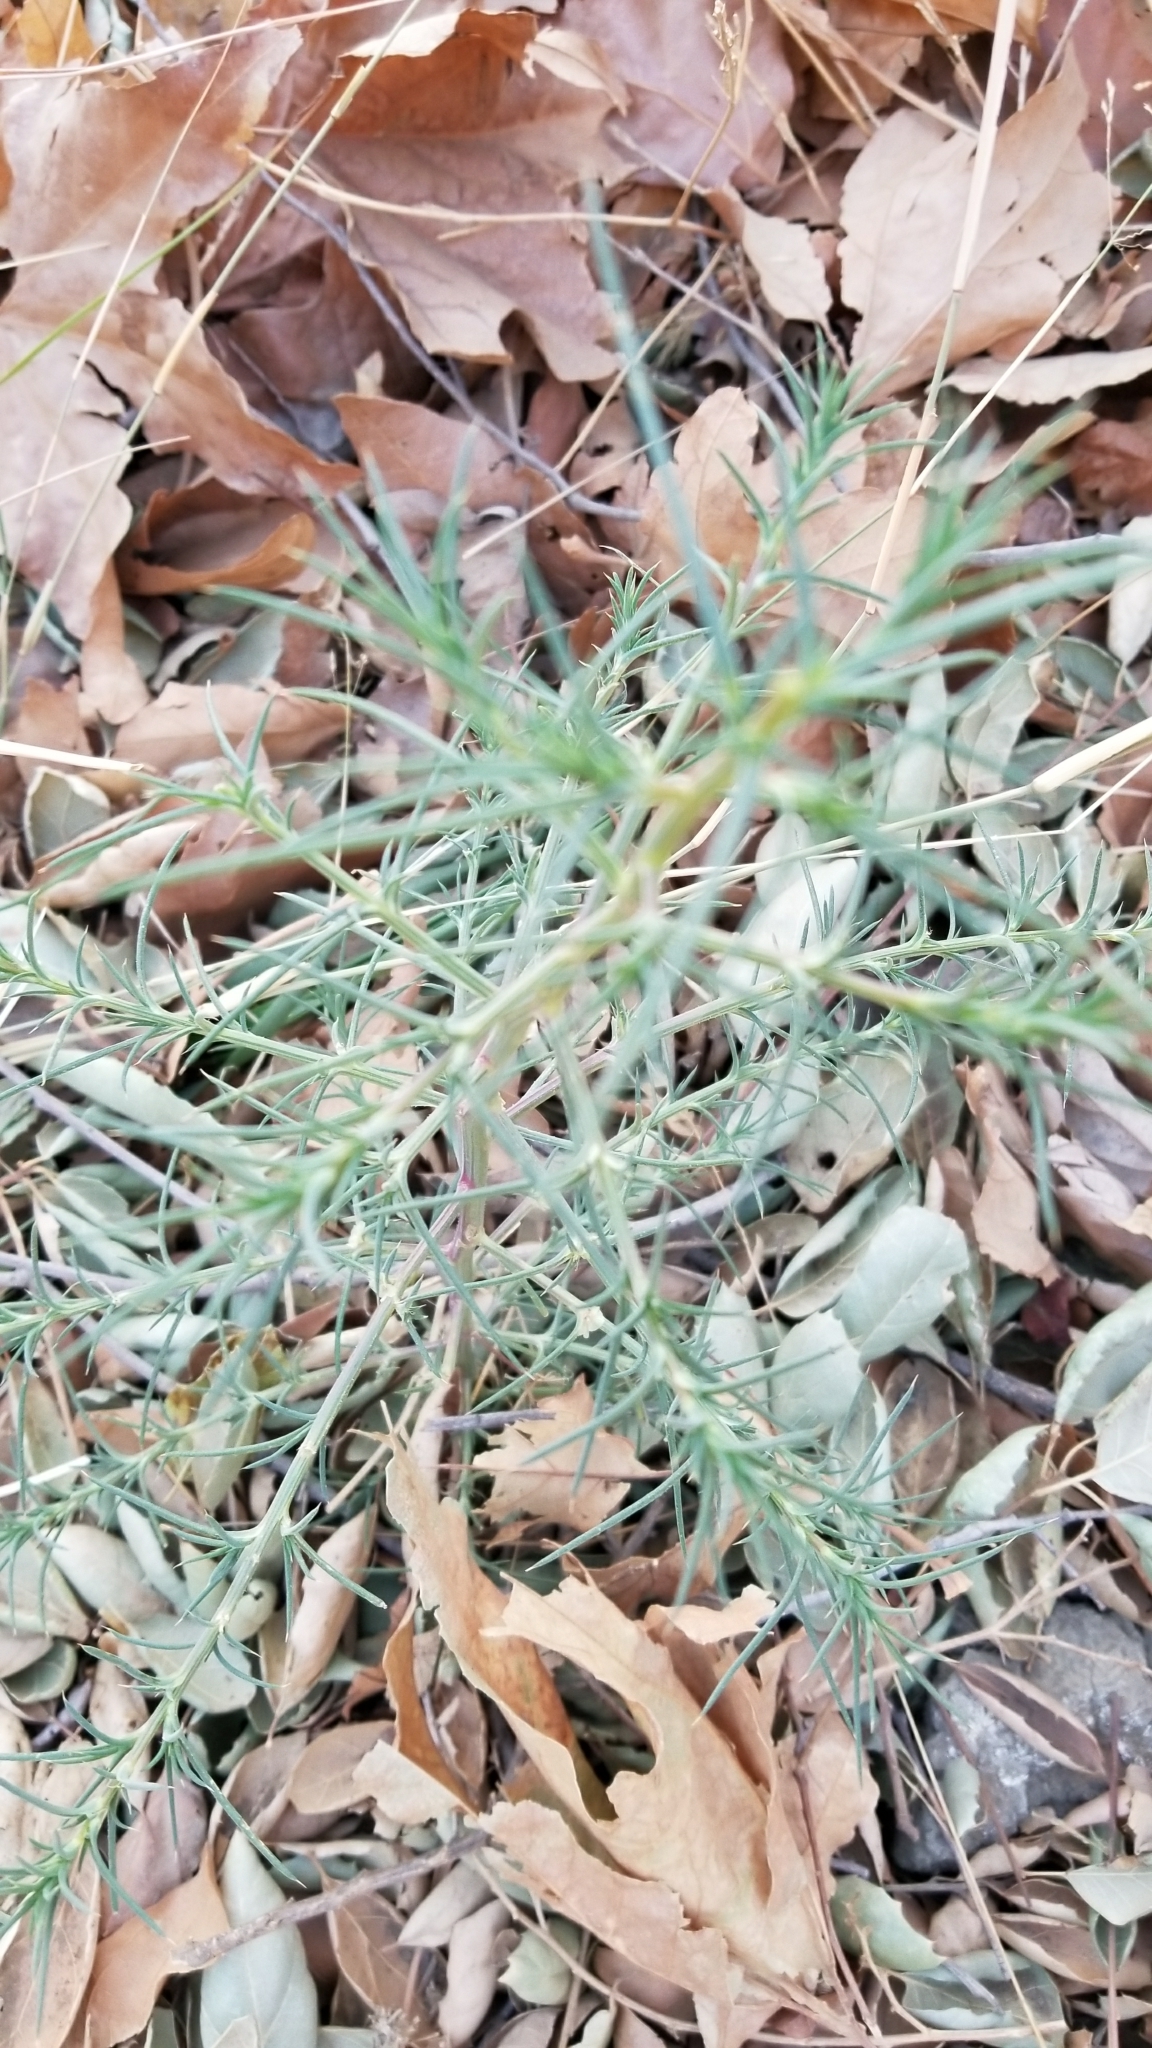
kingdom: Plantae
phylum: Tracheophyta
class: Magnoliopsida
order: Caryophyllales
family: Amaranthaceae
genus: Salsola
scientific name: Salsola
